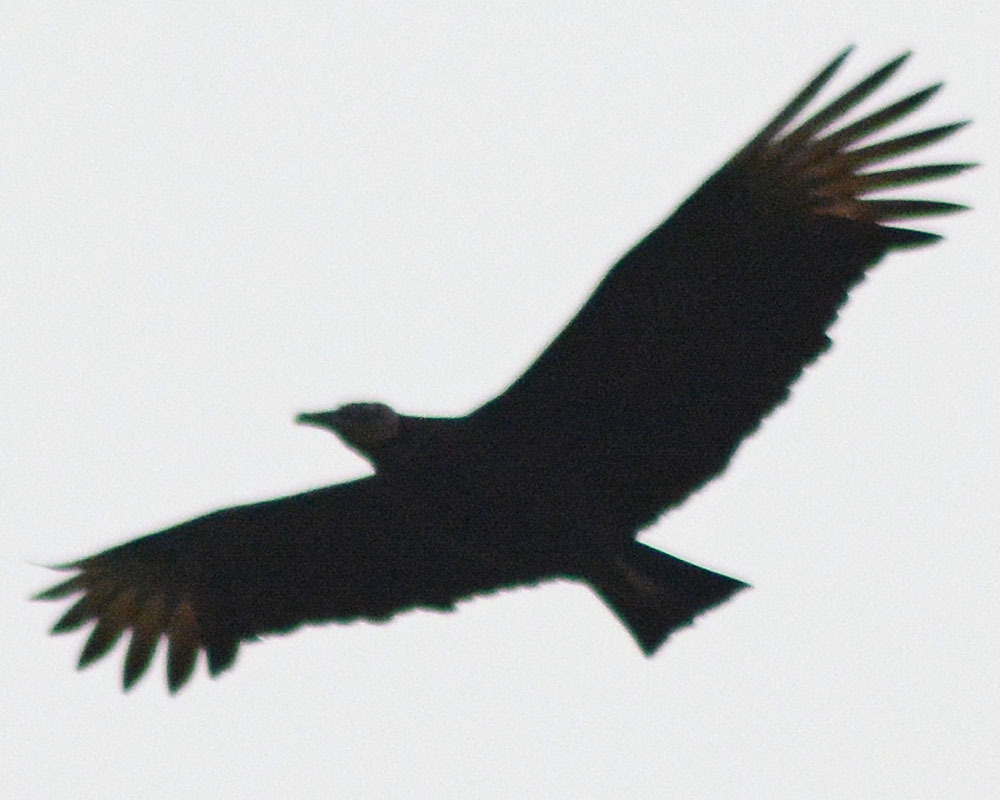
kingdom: Animalia
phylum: Chordata
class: Aves
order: Accipitriformes
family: Cathartidae
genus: Coragyps
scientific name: Coragyps atratus
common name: Black vulture
